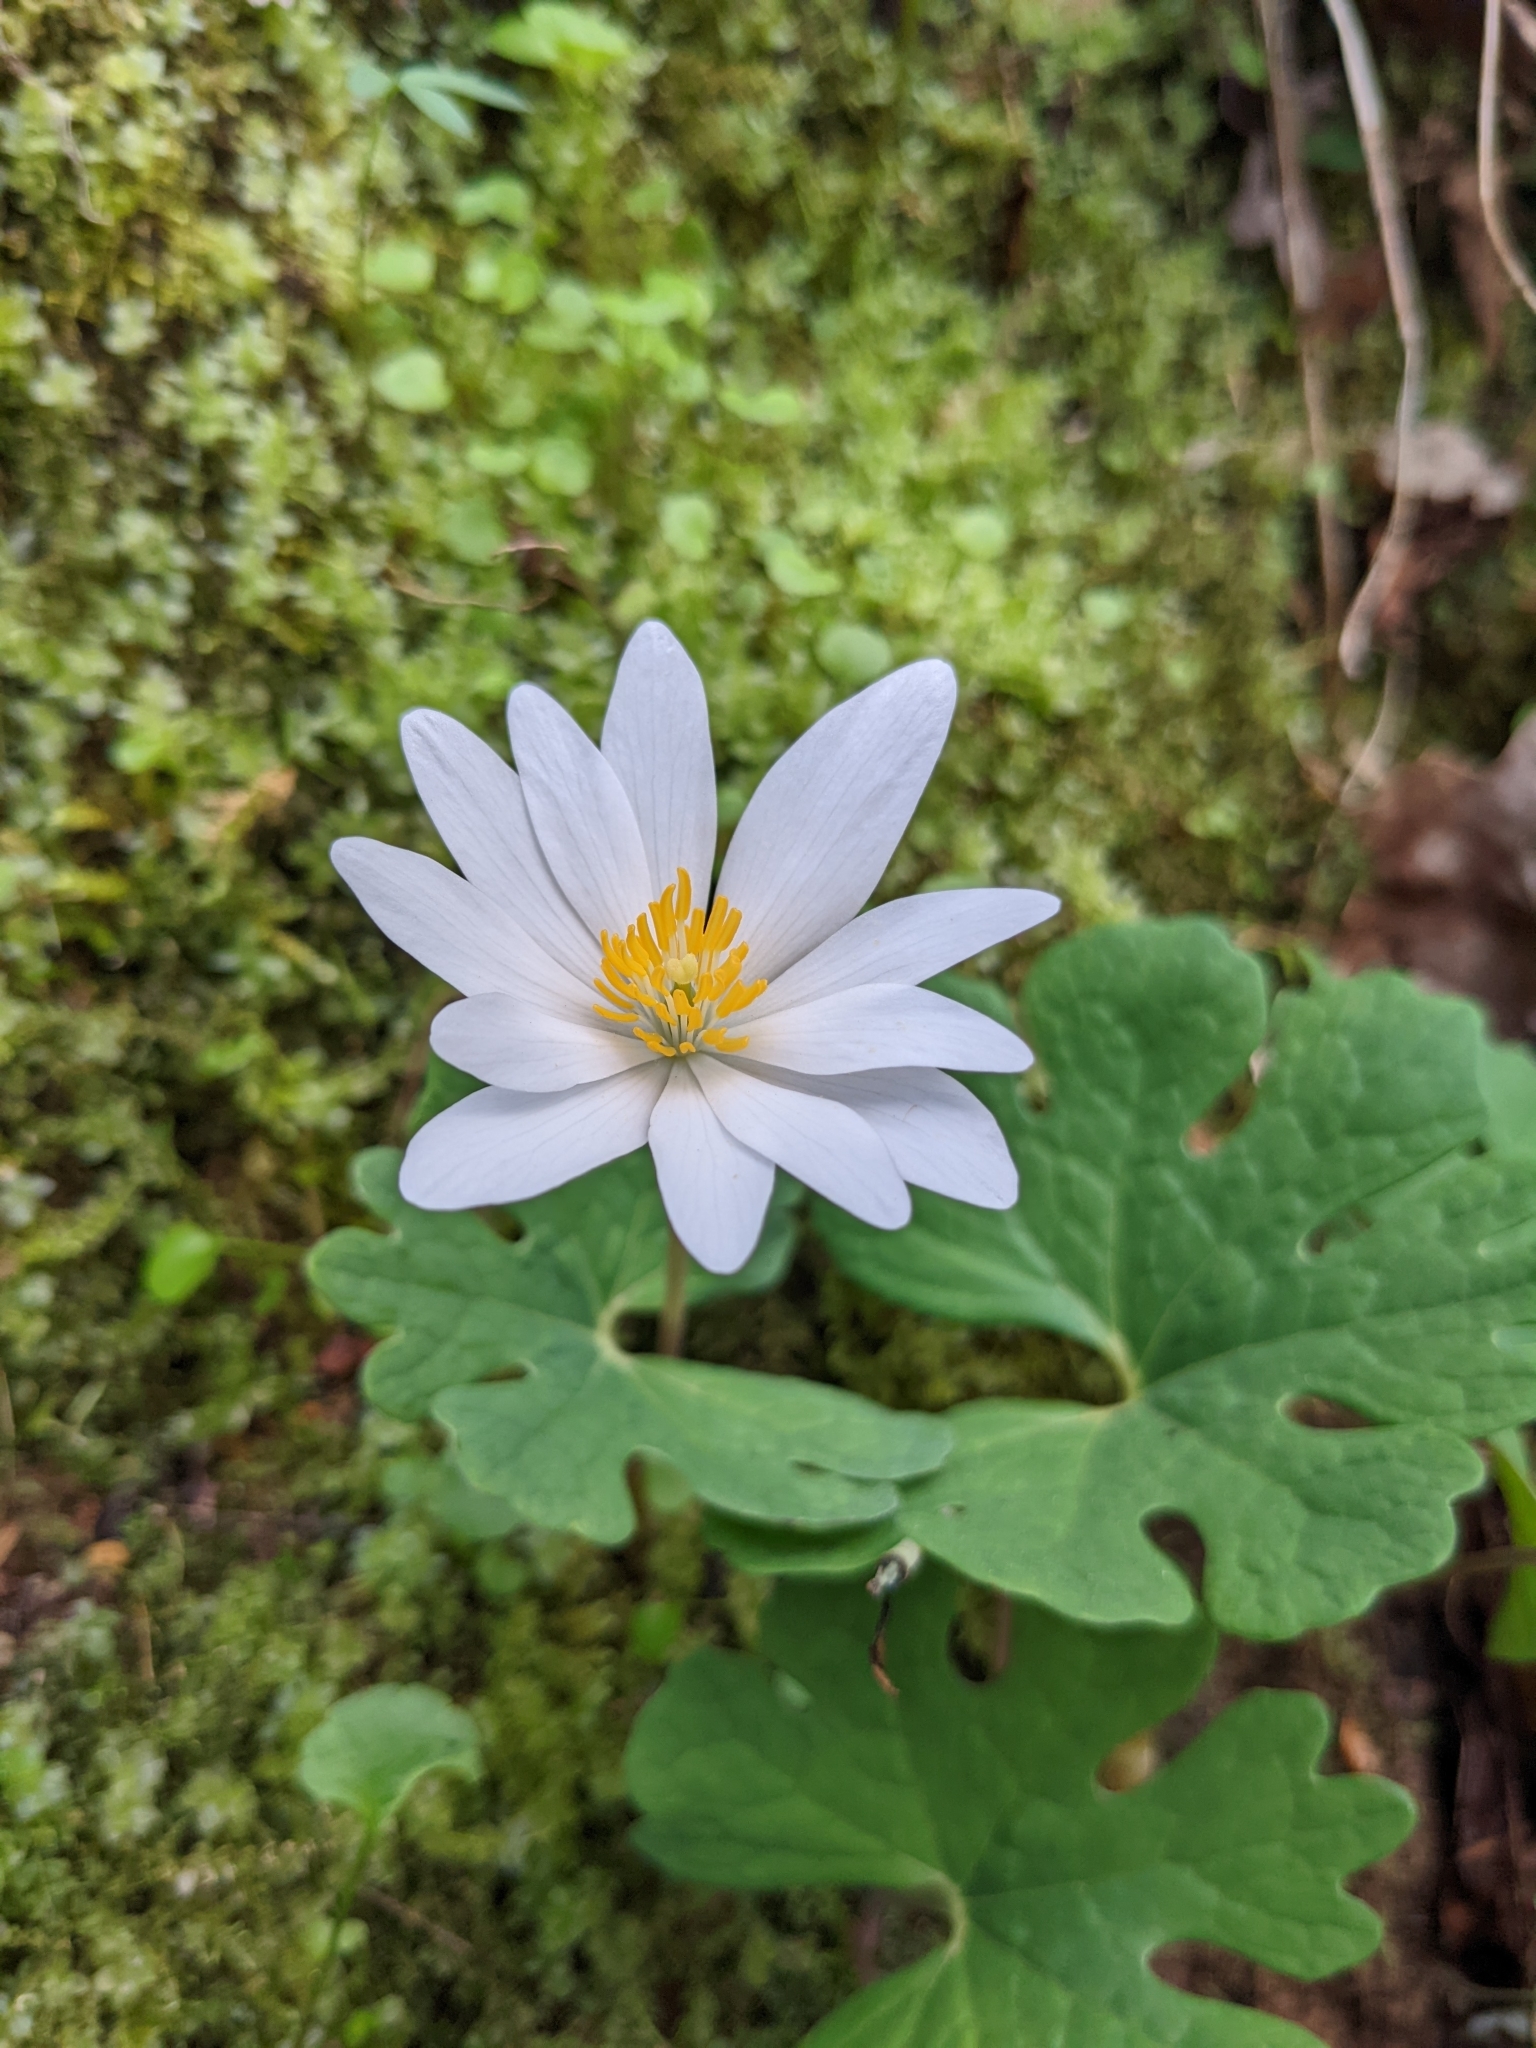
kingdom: Plantae
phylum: Tracheophyta
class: Magnoliopsida
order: Ranunculales
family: Papaveraceae
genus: Sanguinaria
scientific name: Sanguinaria canadensis
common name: Bloodroot
